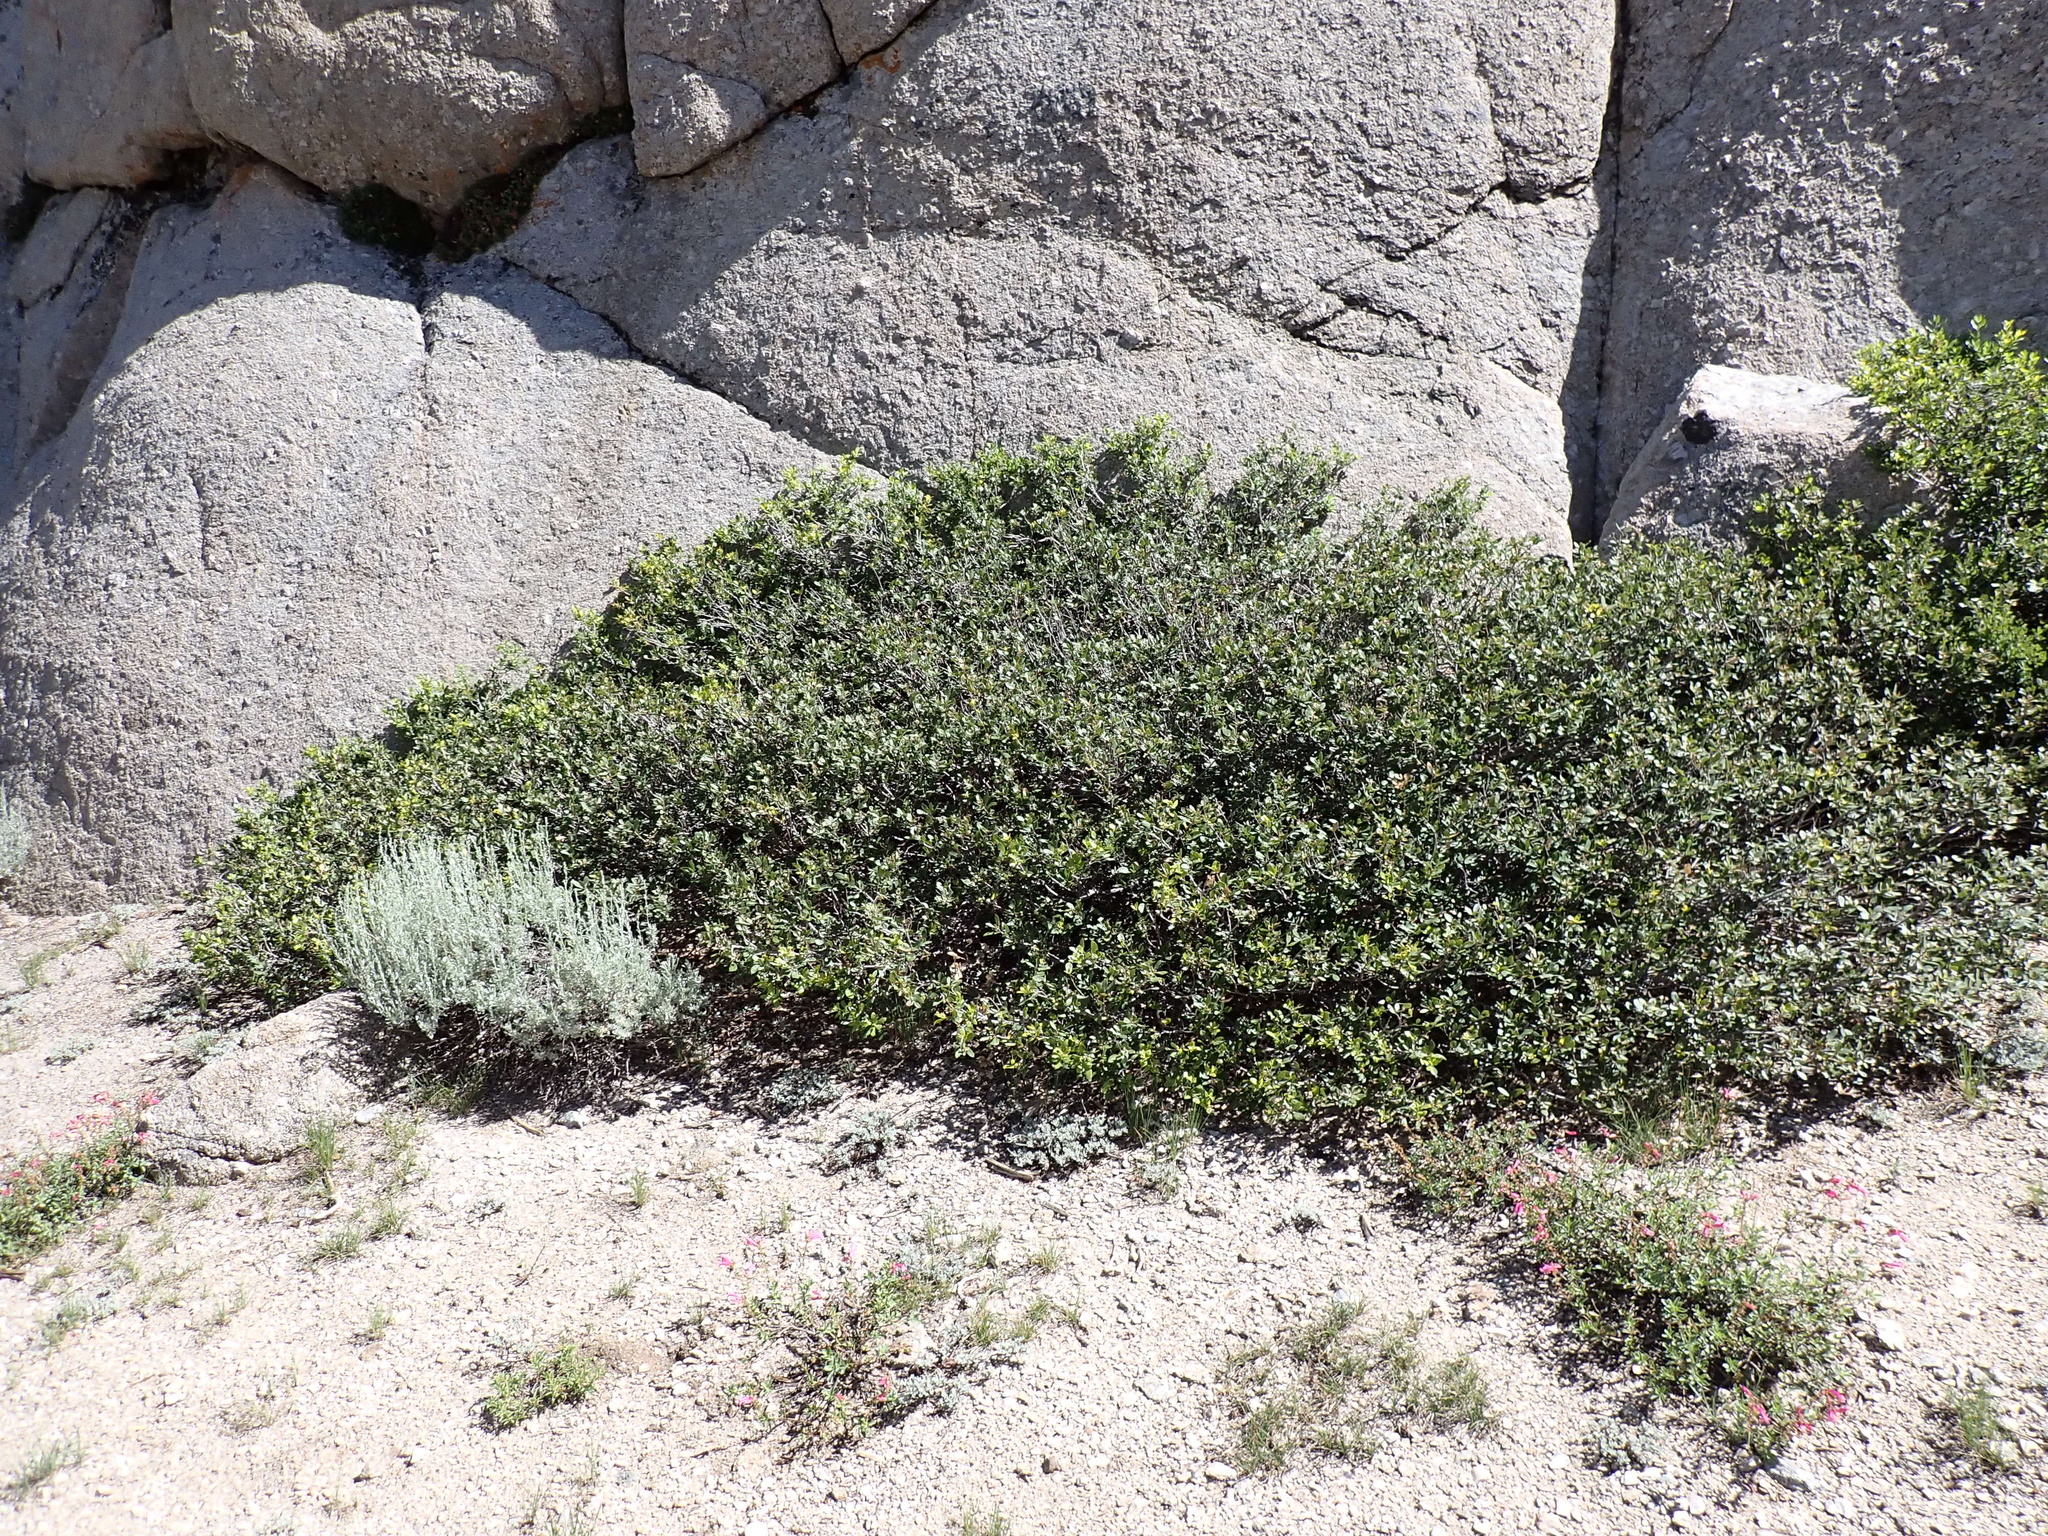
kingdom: Plantae
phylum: Tracheophyta
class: Magnoliopsida
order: Fagales
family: Fagaceae
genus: Quercus
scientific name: Quercus vacciniifolia
